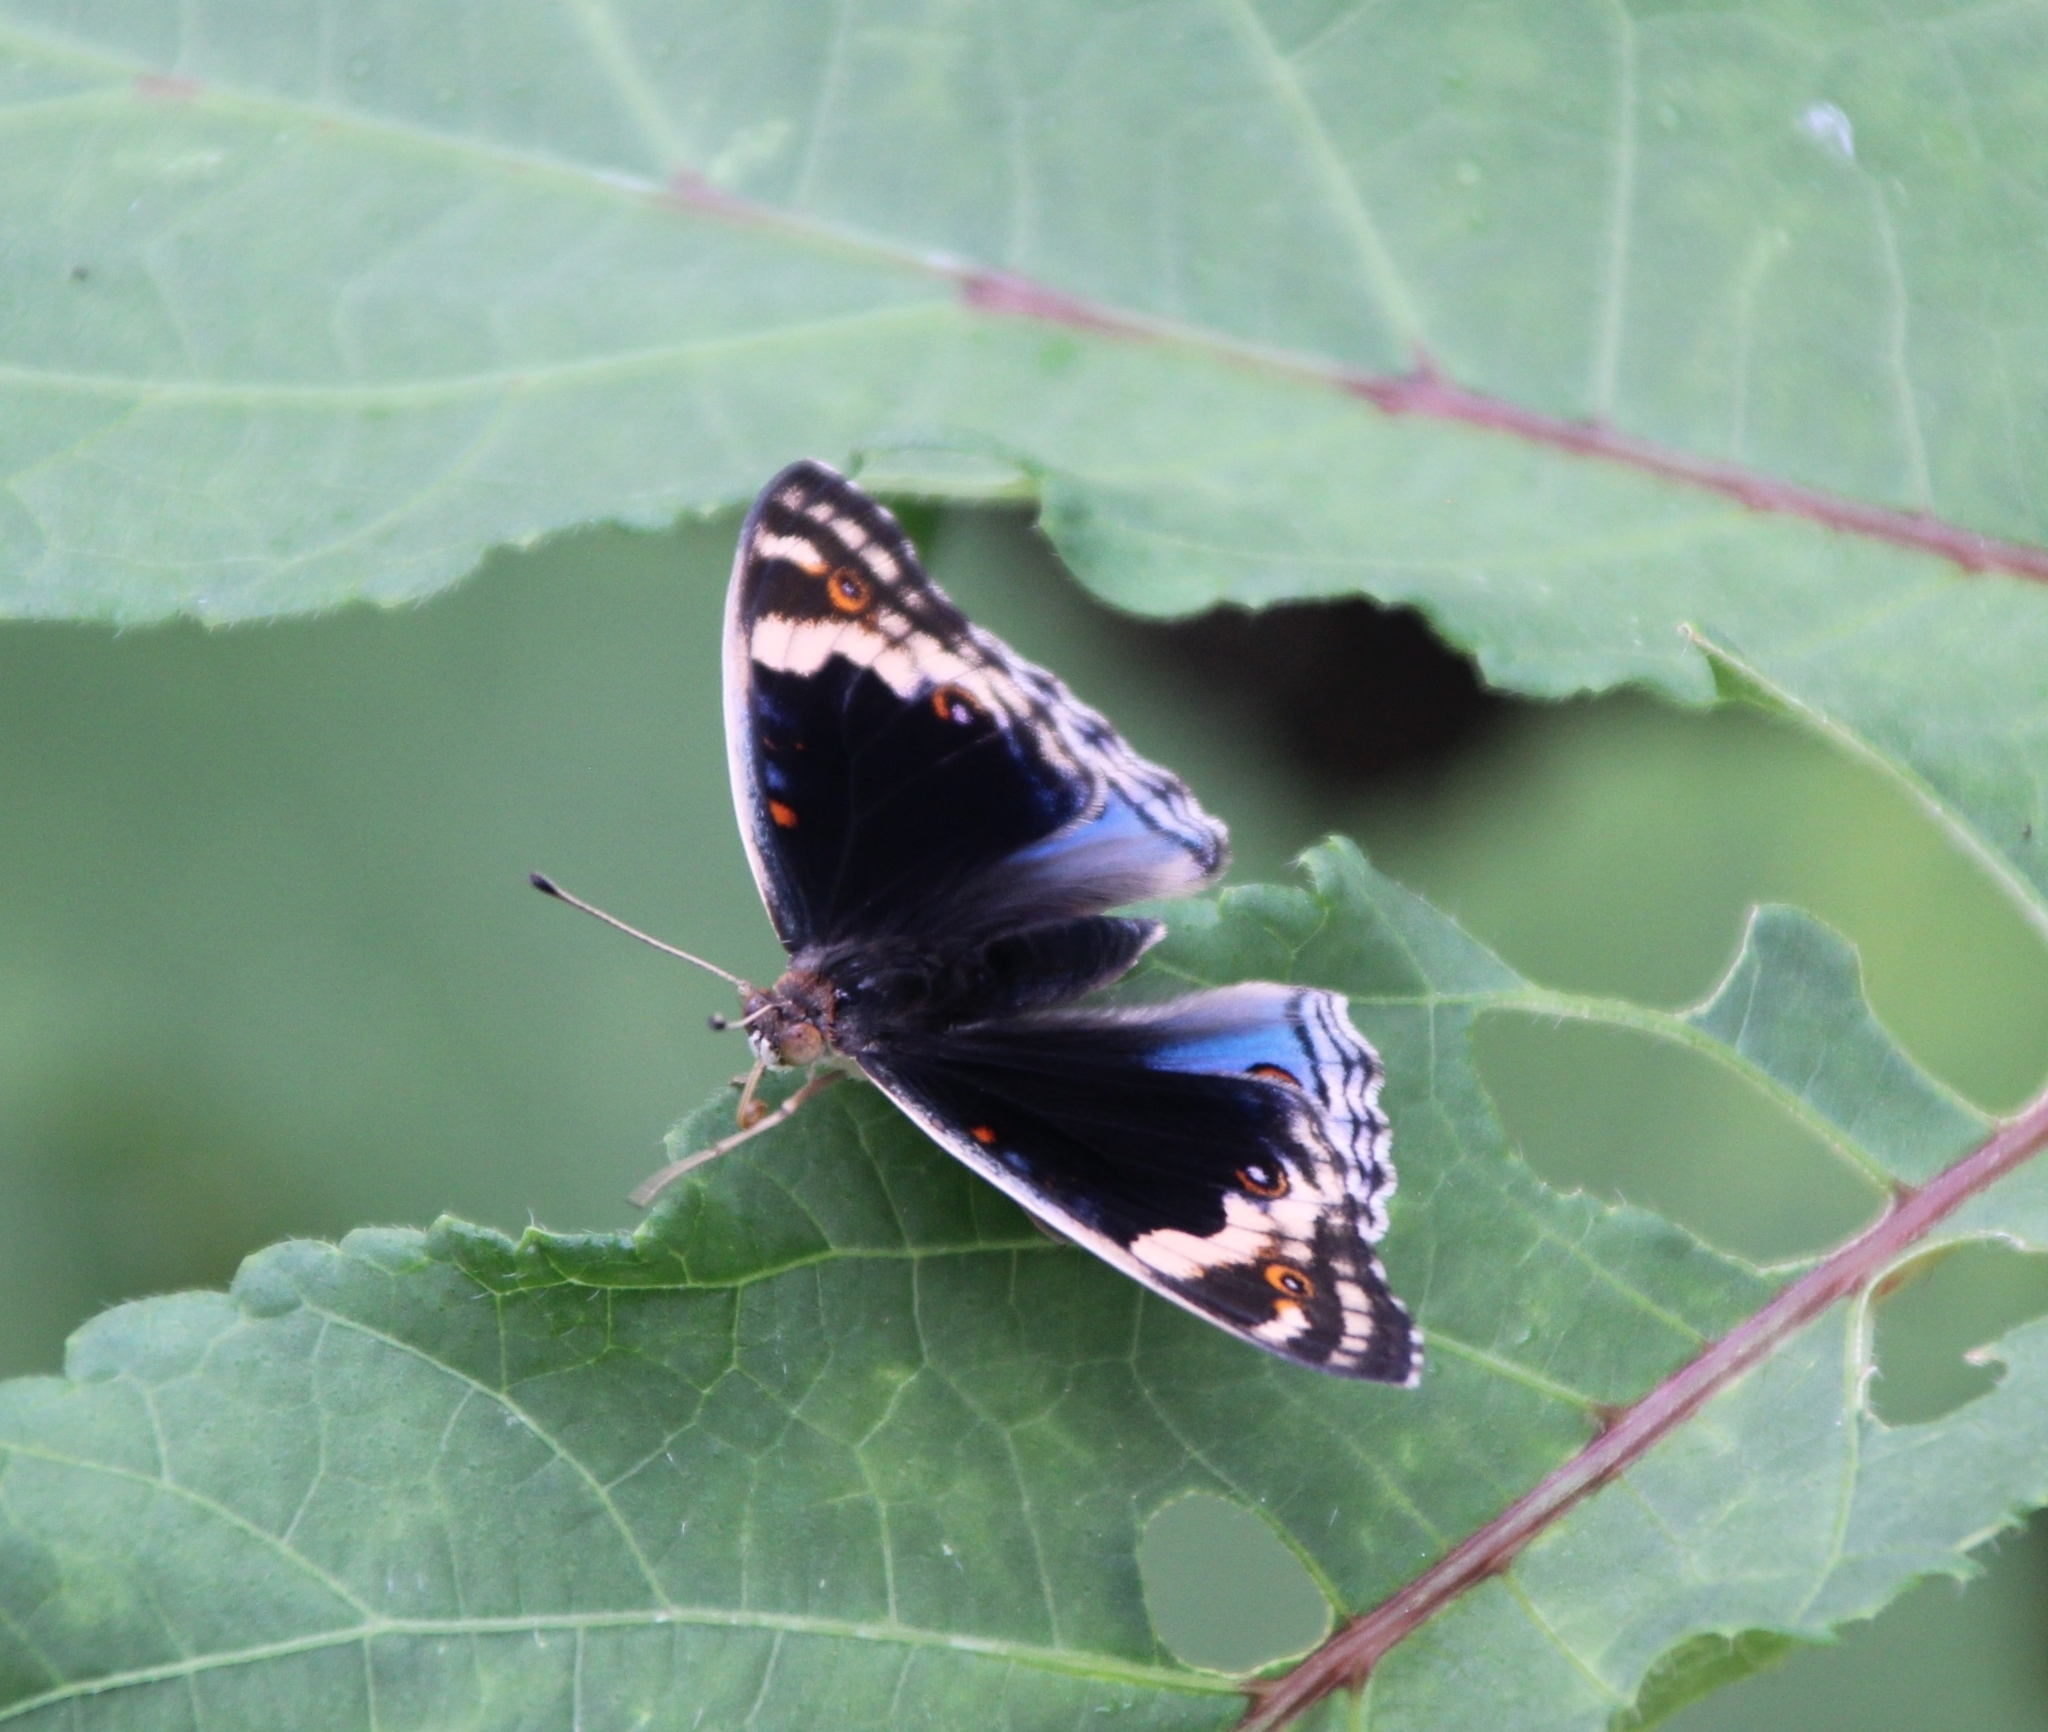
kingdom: Animalia
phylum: Arthropoda
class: Insecta
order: Lepidoptera
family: Nymphalidae
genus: Junonia
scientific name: Junonia orithya
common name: Blue pansy
